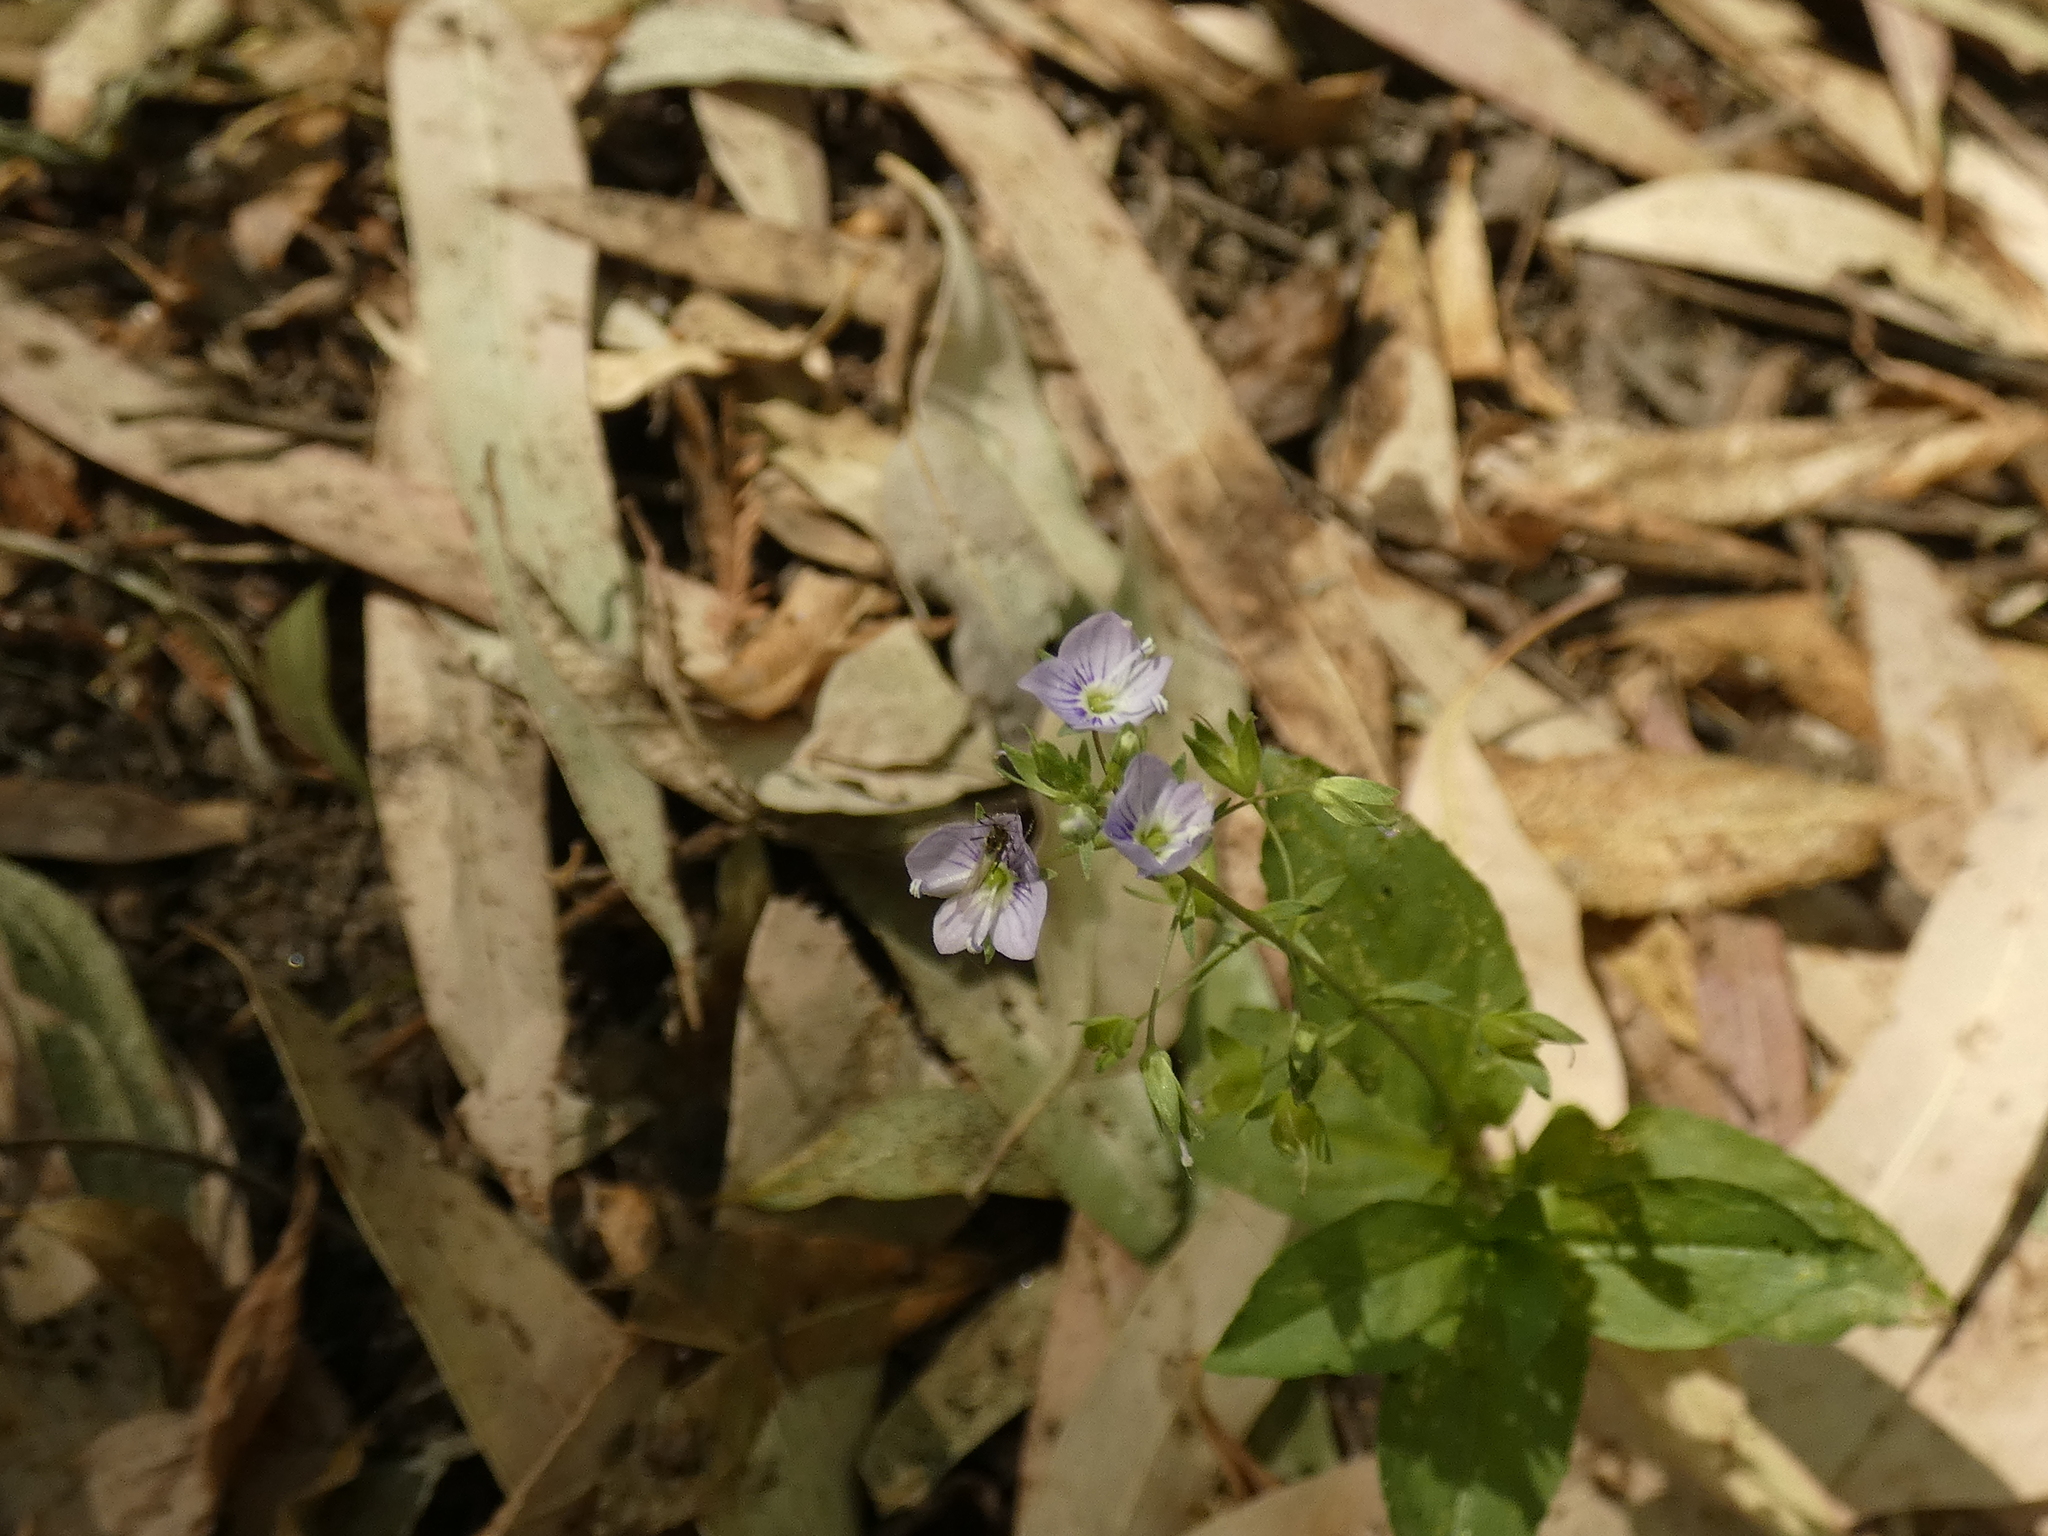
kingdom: Plantae
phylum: Tracheophyta
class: Magnoliopsida
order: Lamiales
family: Plantaginaceae
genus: Veronica
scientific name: Veronica anagallis-aquatica
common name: Water speedwell
